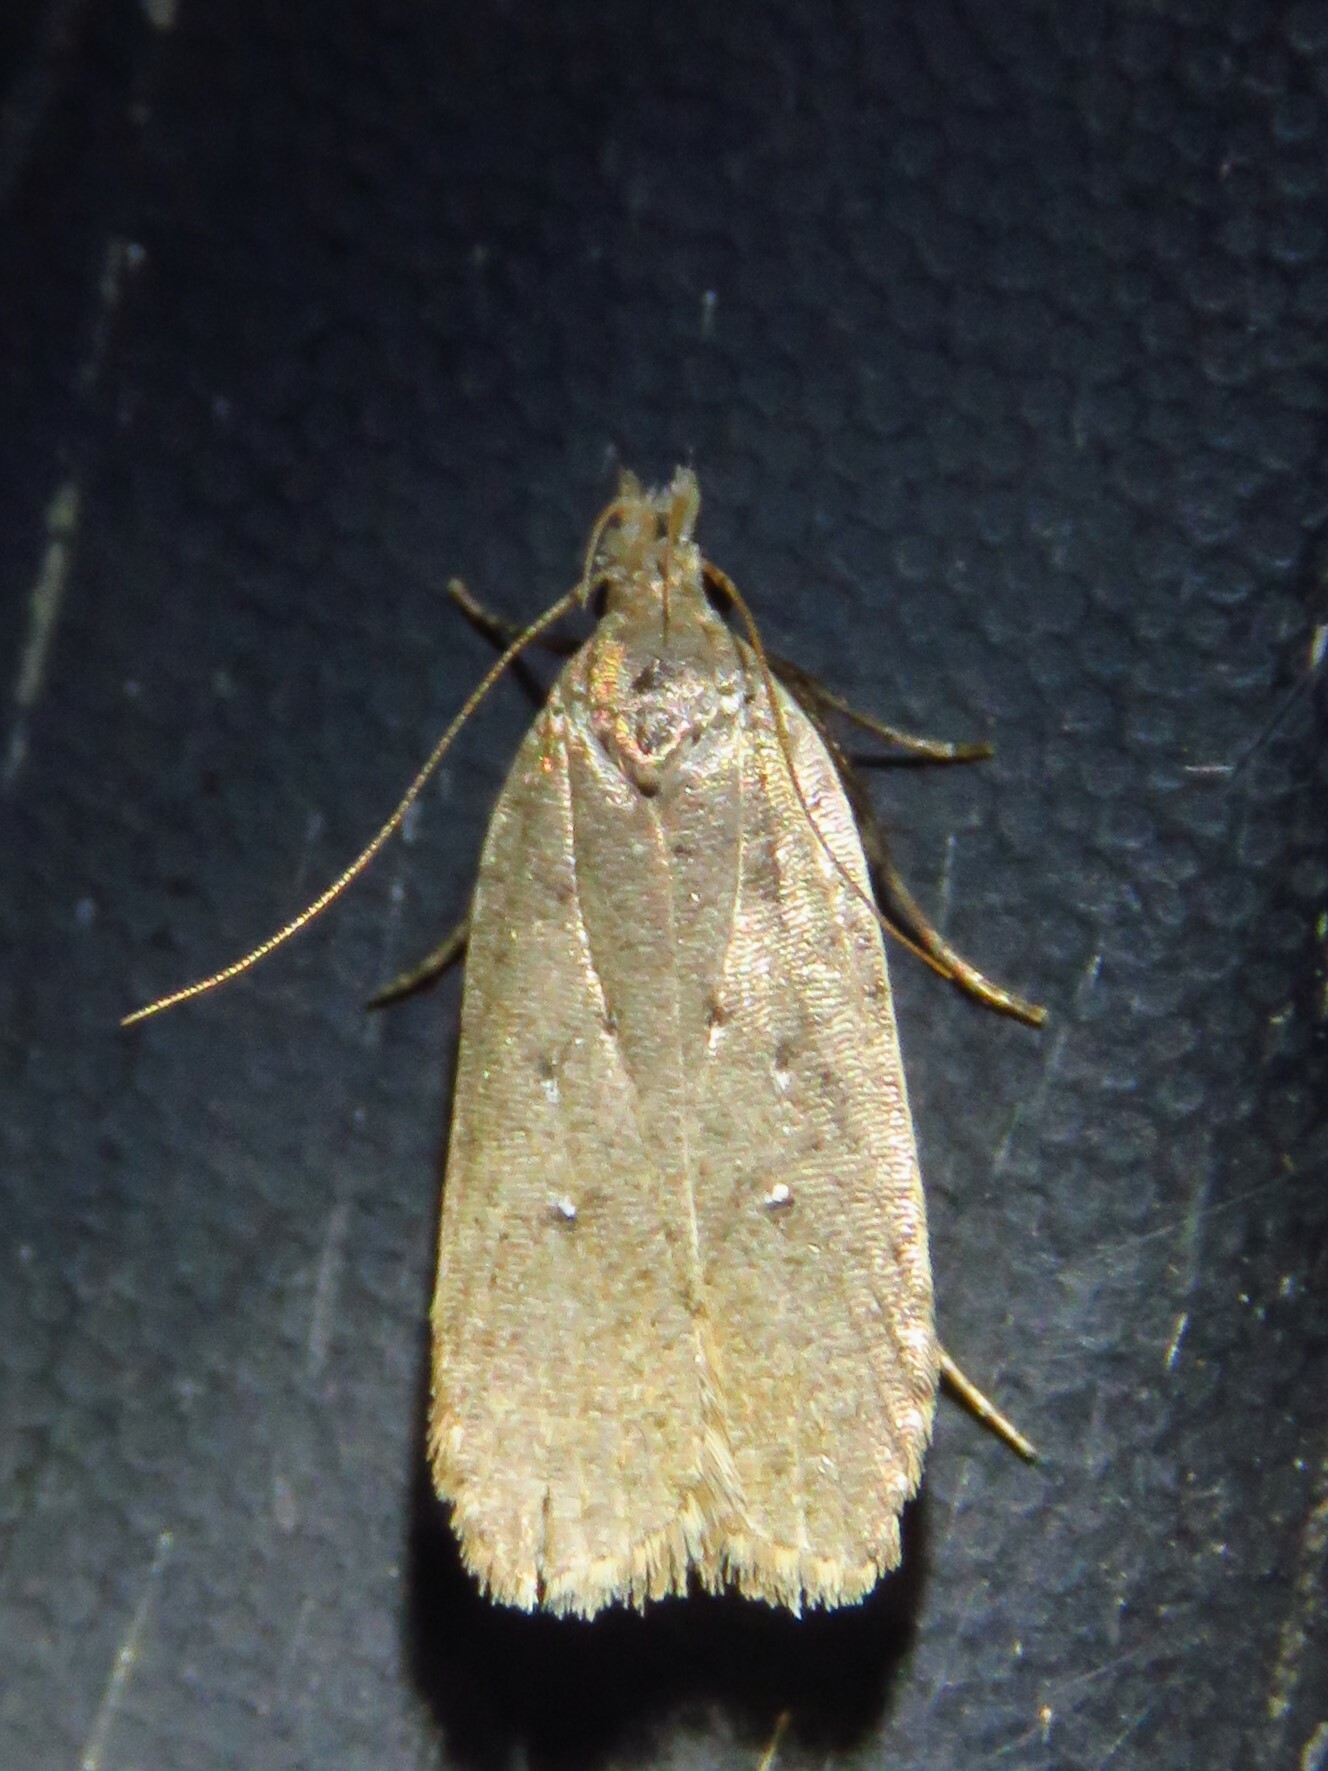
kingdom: Animalia
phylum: Arthropoda
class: Insecta
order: Lepidoptera
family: Autostichidae
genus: Autosticha
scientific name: Autosticha kyotensis
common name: Kyoto moth
